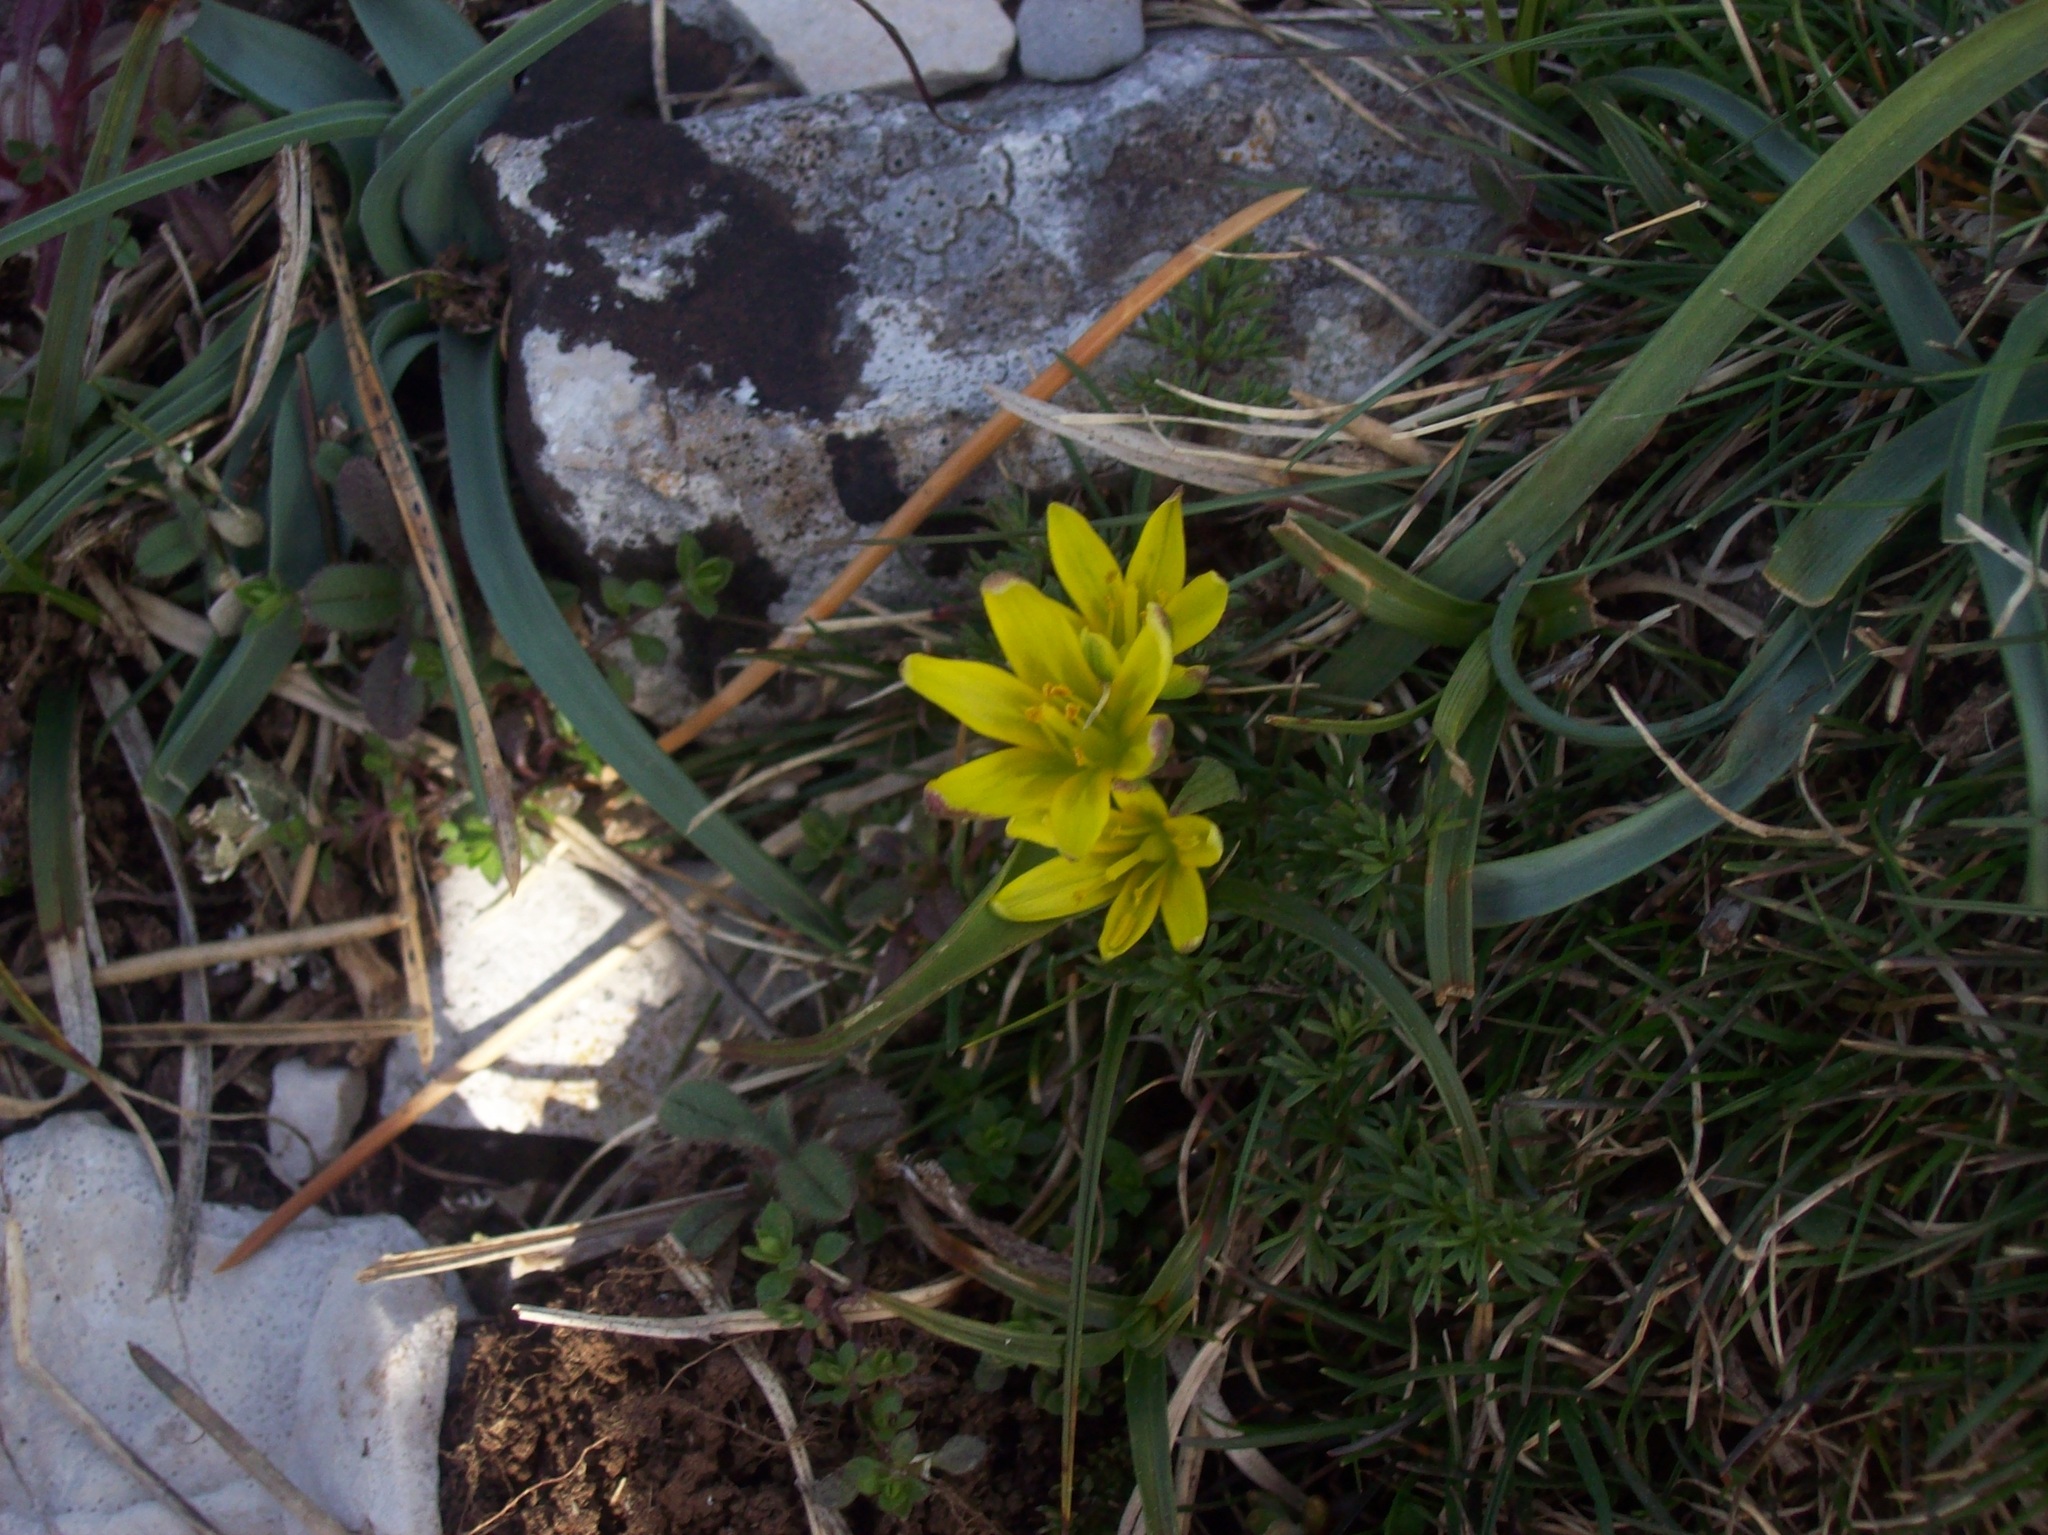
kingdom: Plantae
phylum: Tracheophyta
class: Liliopsida
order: Liliales
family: Liliaceae
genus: Gagea
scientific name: Gagea pusilla
